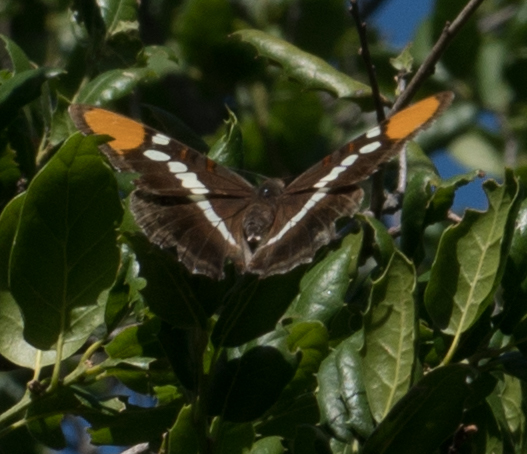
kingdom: Animalia
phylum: Arthropoda
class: Insecta
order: Lepidoptera
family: Nymphalidae
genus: Limenitis
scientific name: Limenitis bredowii
